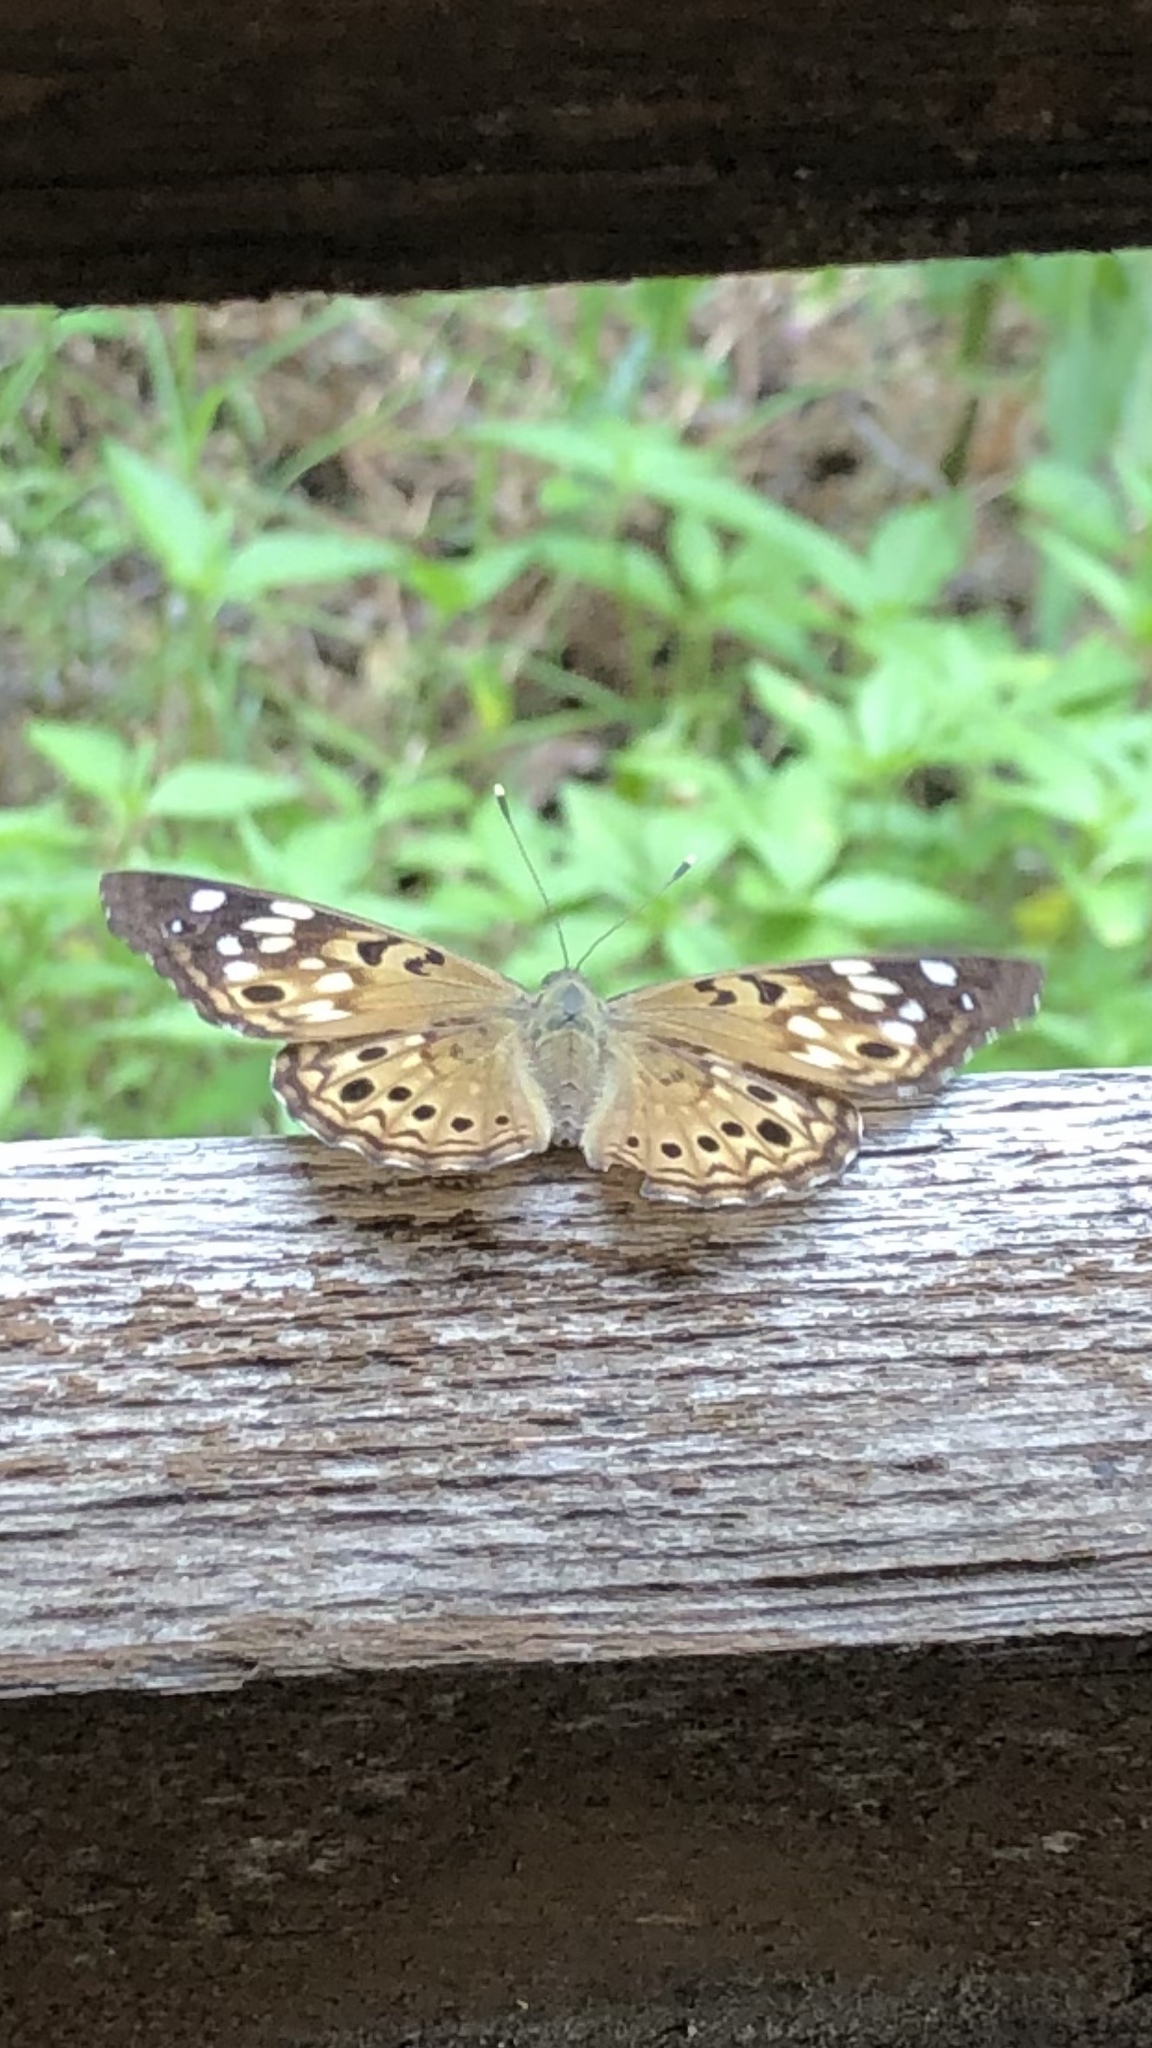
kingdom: Animalia
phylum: Arthropoda
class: Insecta
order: Lepidoptera
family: Nymphalidae
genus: Asterocampa
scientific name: Asterocampa celtis
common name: Hackberry emperor
